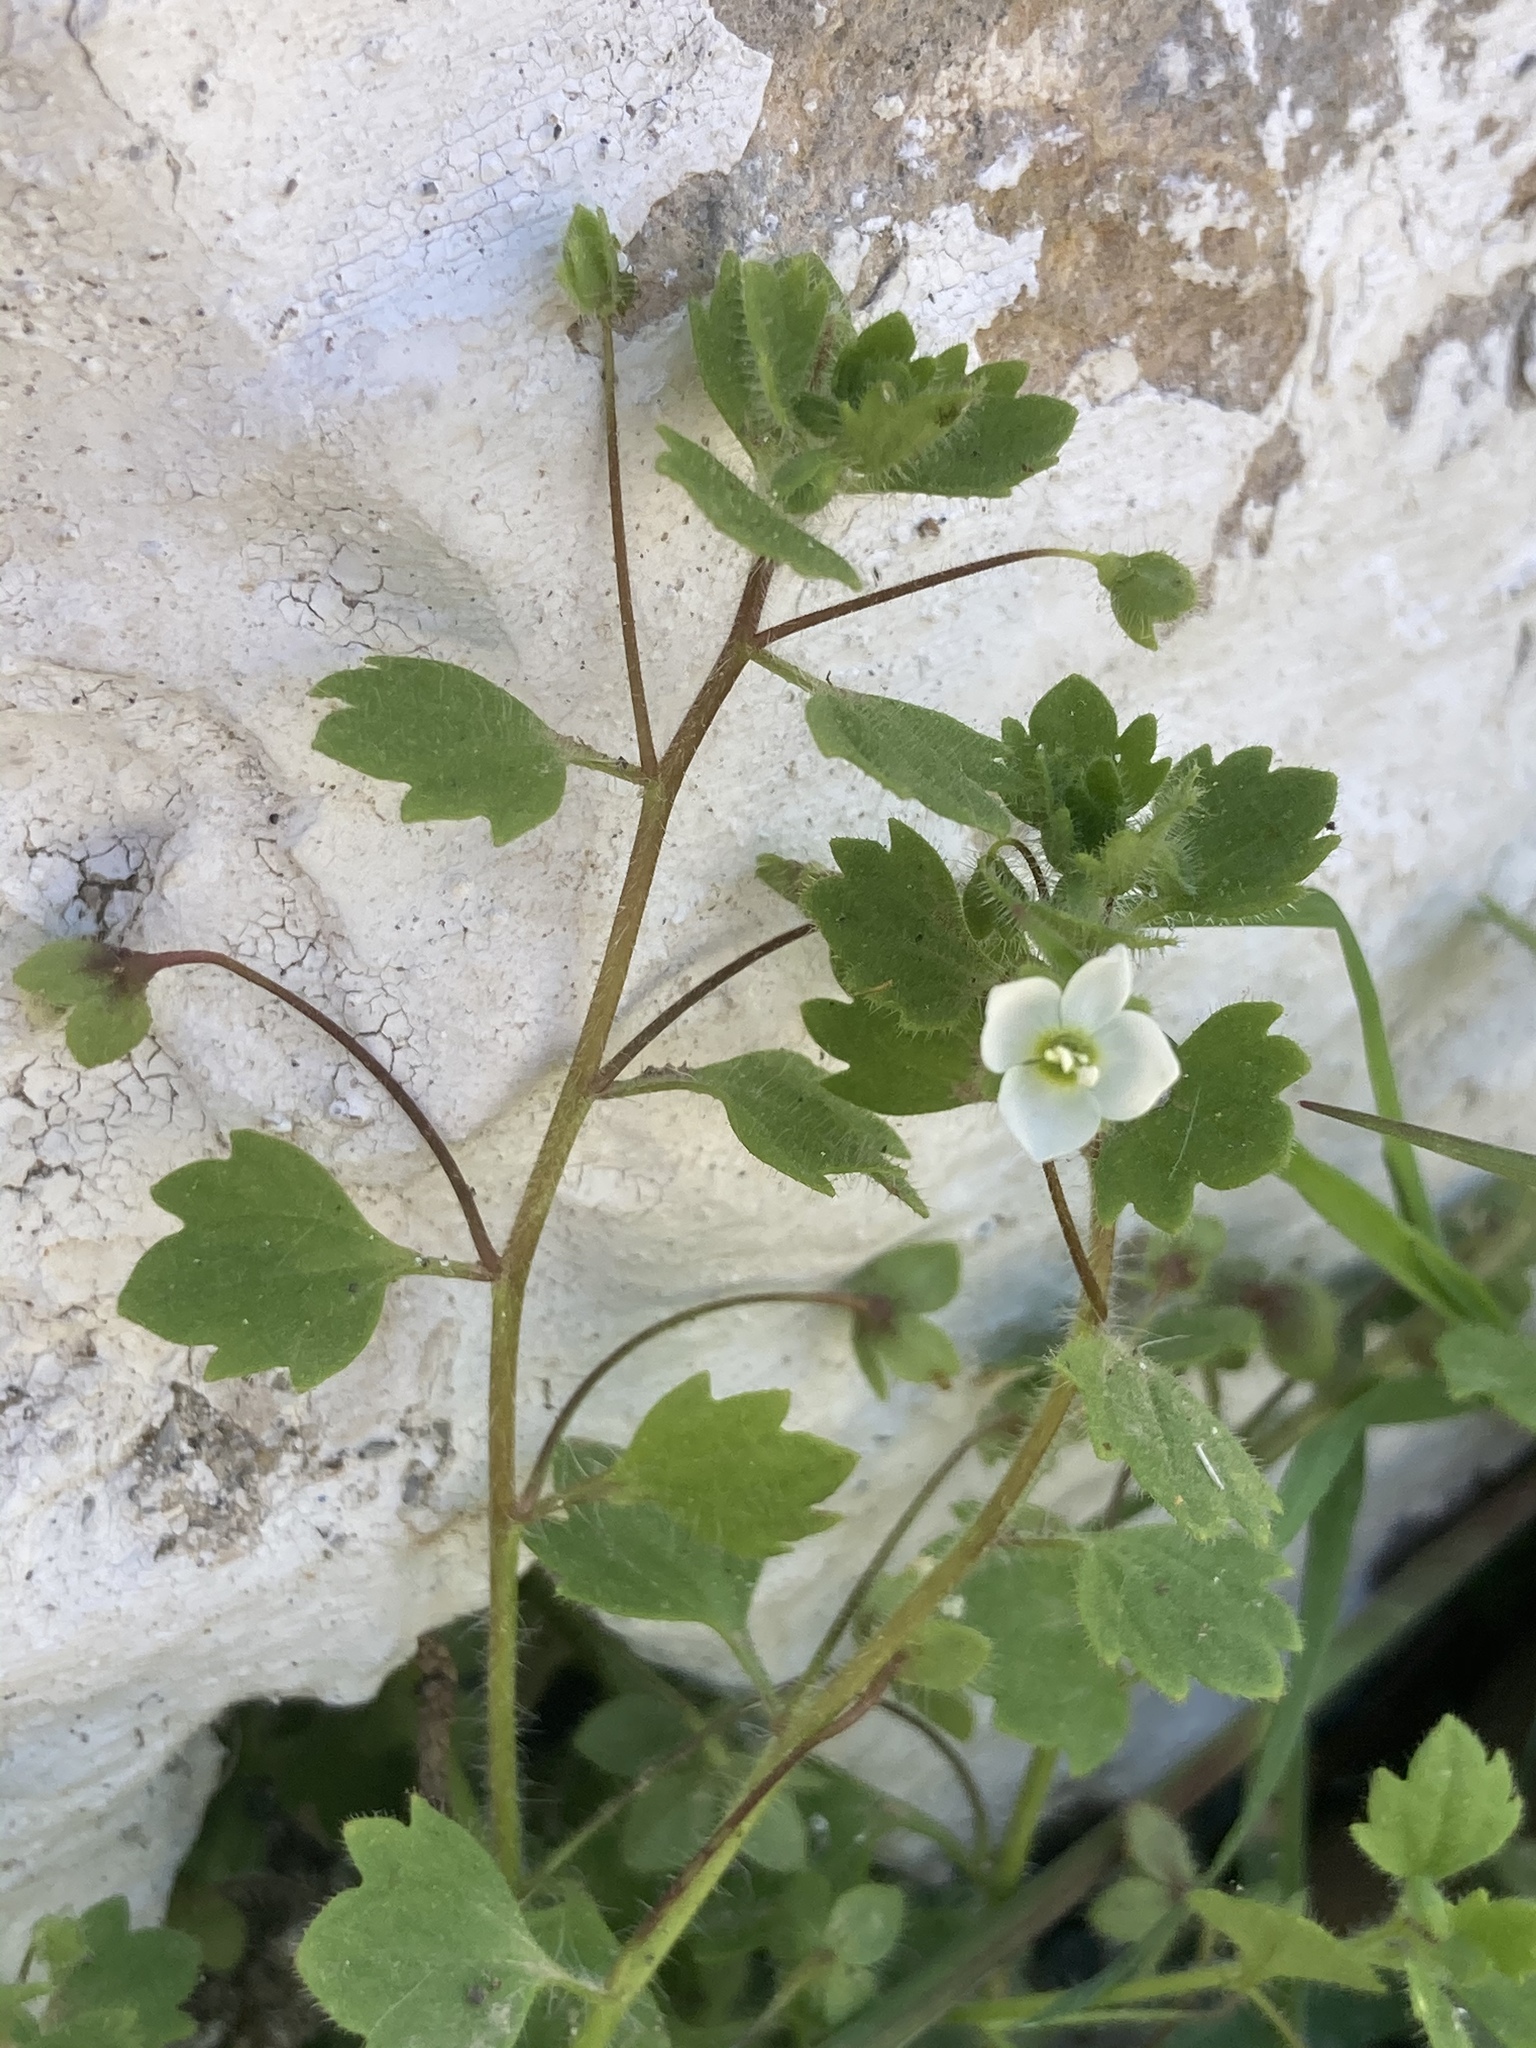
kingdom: Plantae
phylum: Tracheophyta
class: Magnoliopsida
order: Lamiales
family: Plantaginaceae
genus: Veronica
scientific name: Veronica cymbalaria
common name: Pale speedwell
